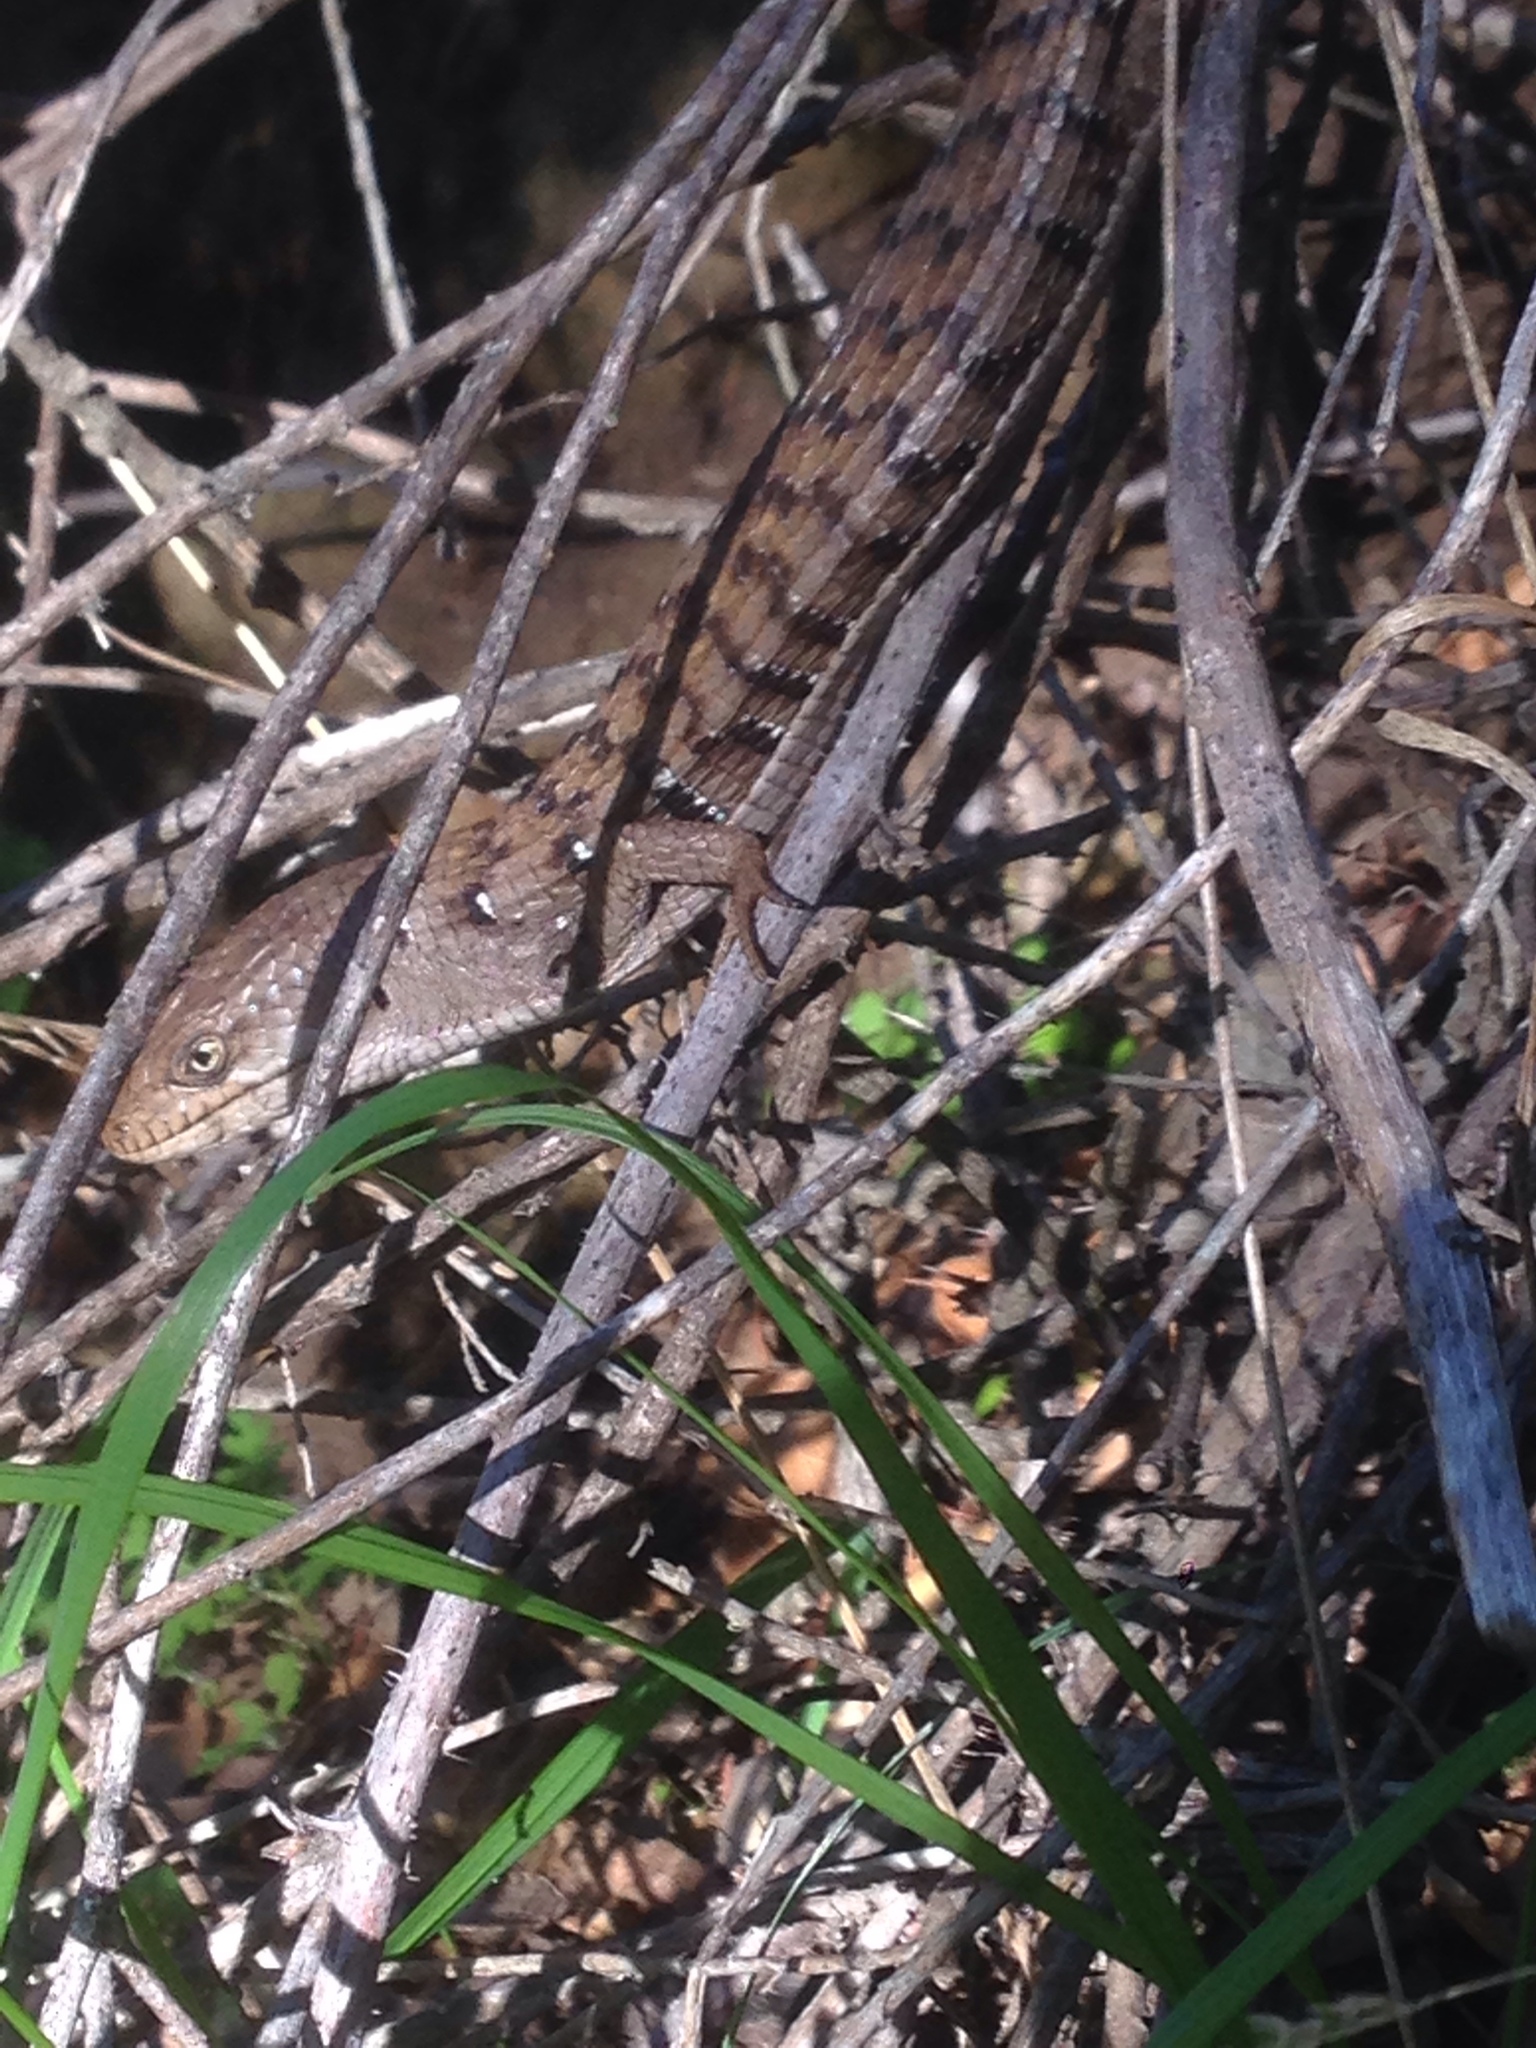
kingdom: Animalia
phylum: Chordata
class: Squamata
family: Anguidae
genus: Elgaria
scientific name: Elgaria multicarinata
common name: Southern alligator lizard
